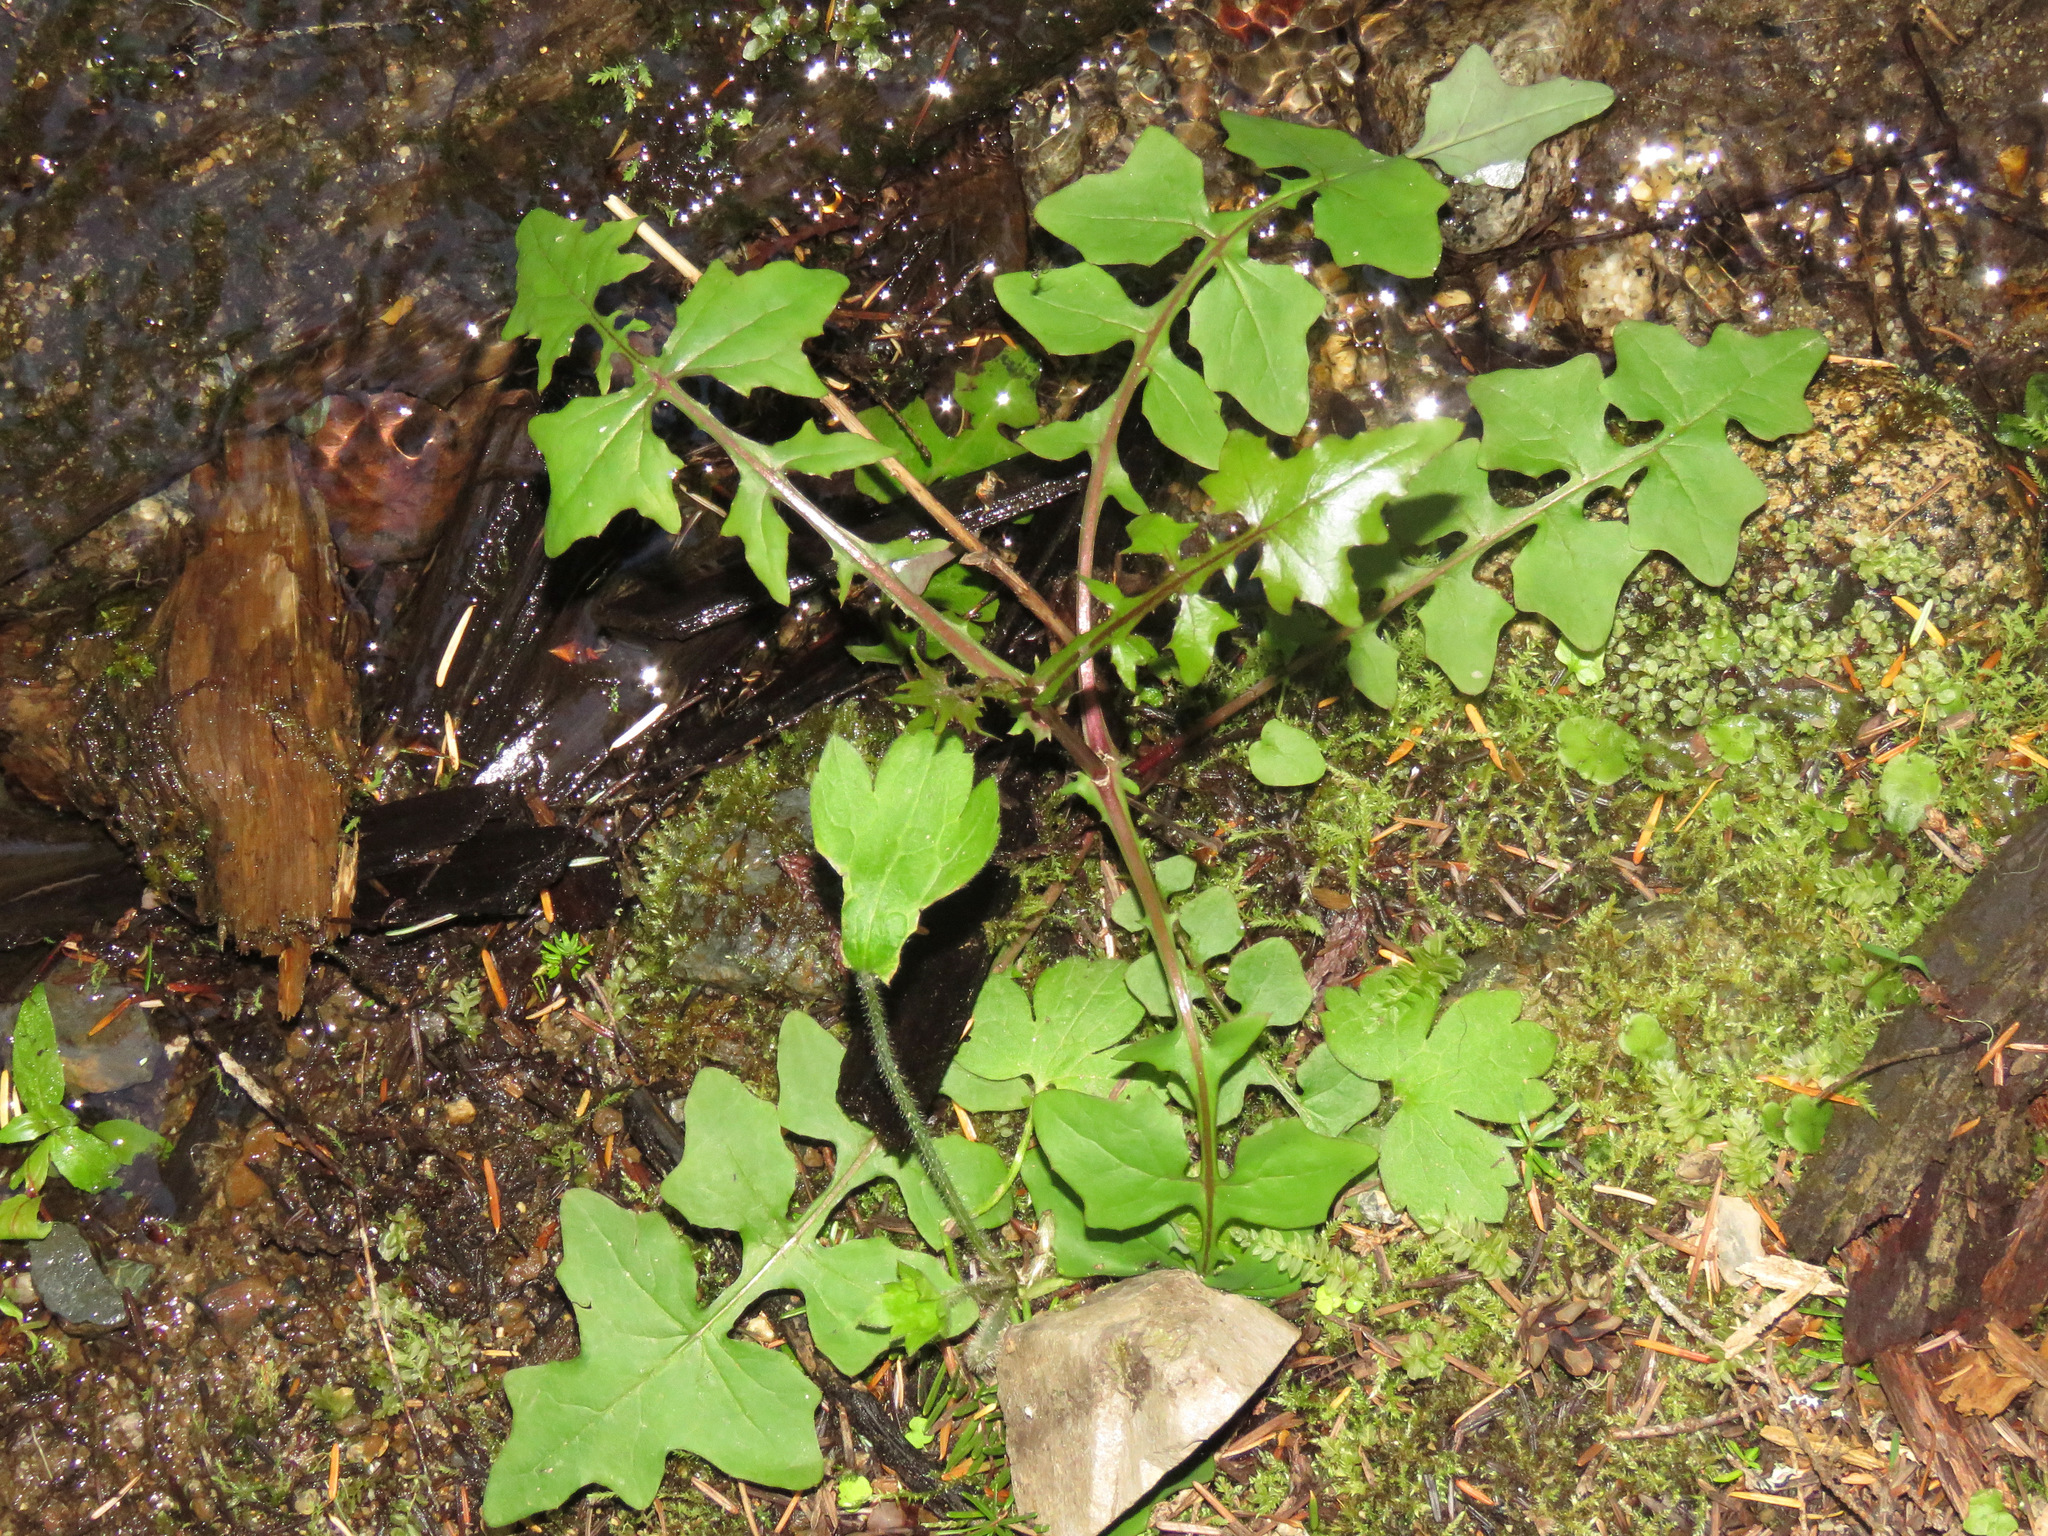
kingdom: Plantae
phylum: Tracheophyta
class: Magnoliopsida
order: Asterales
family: Asteraceae
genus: Mycelis
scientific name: Mycelis muralis
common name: Wall lettuce
